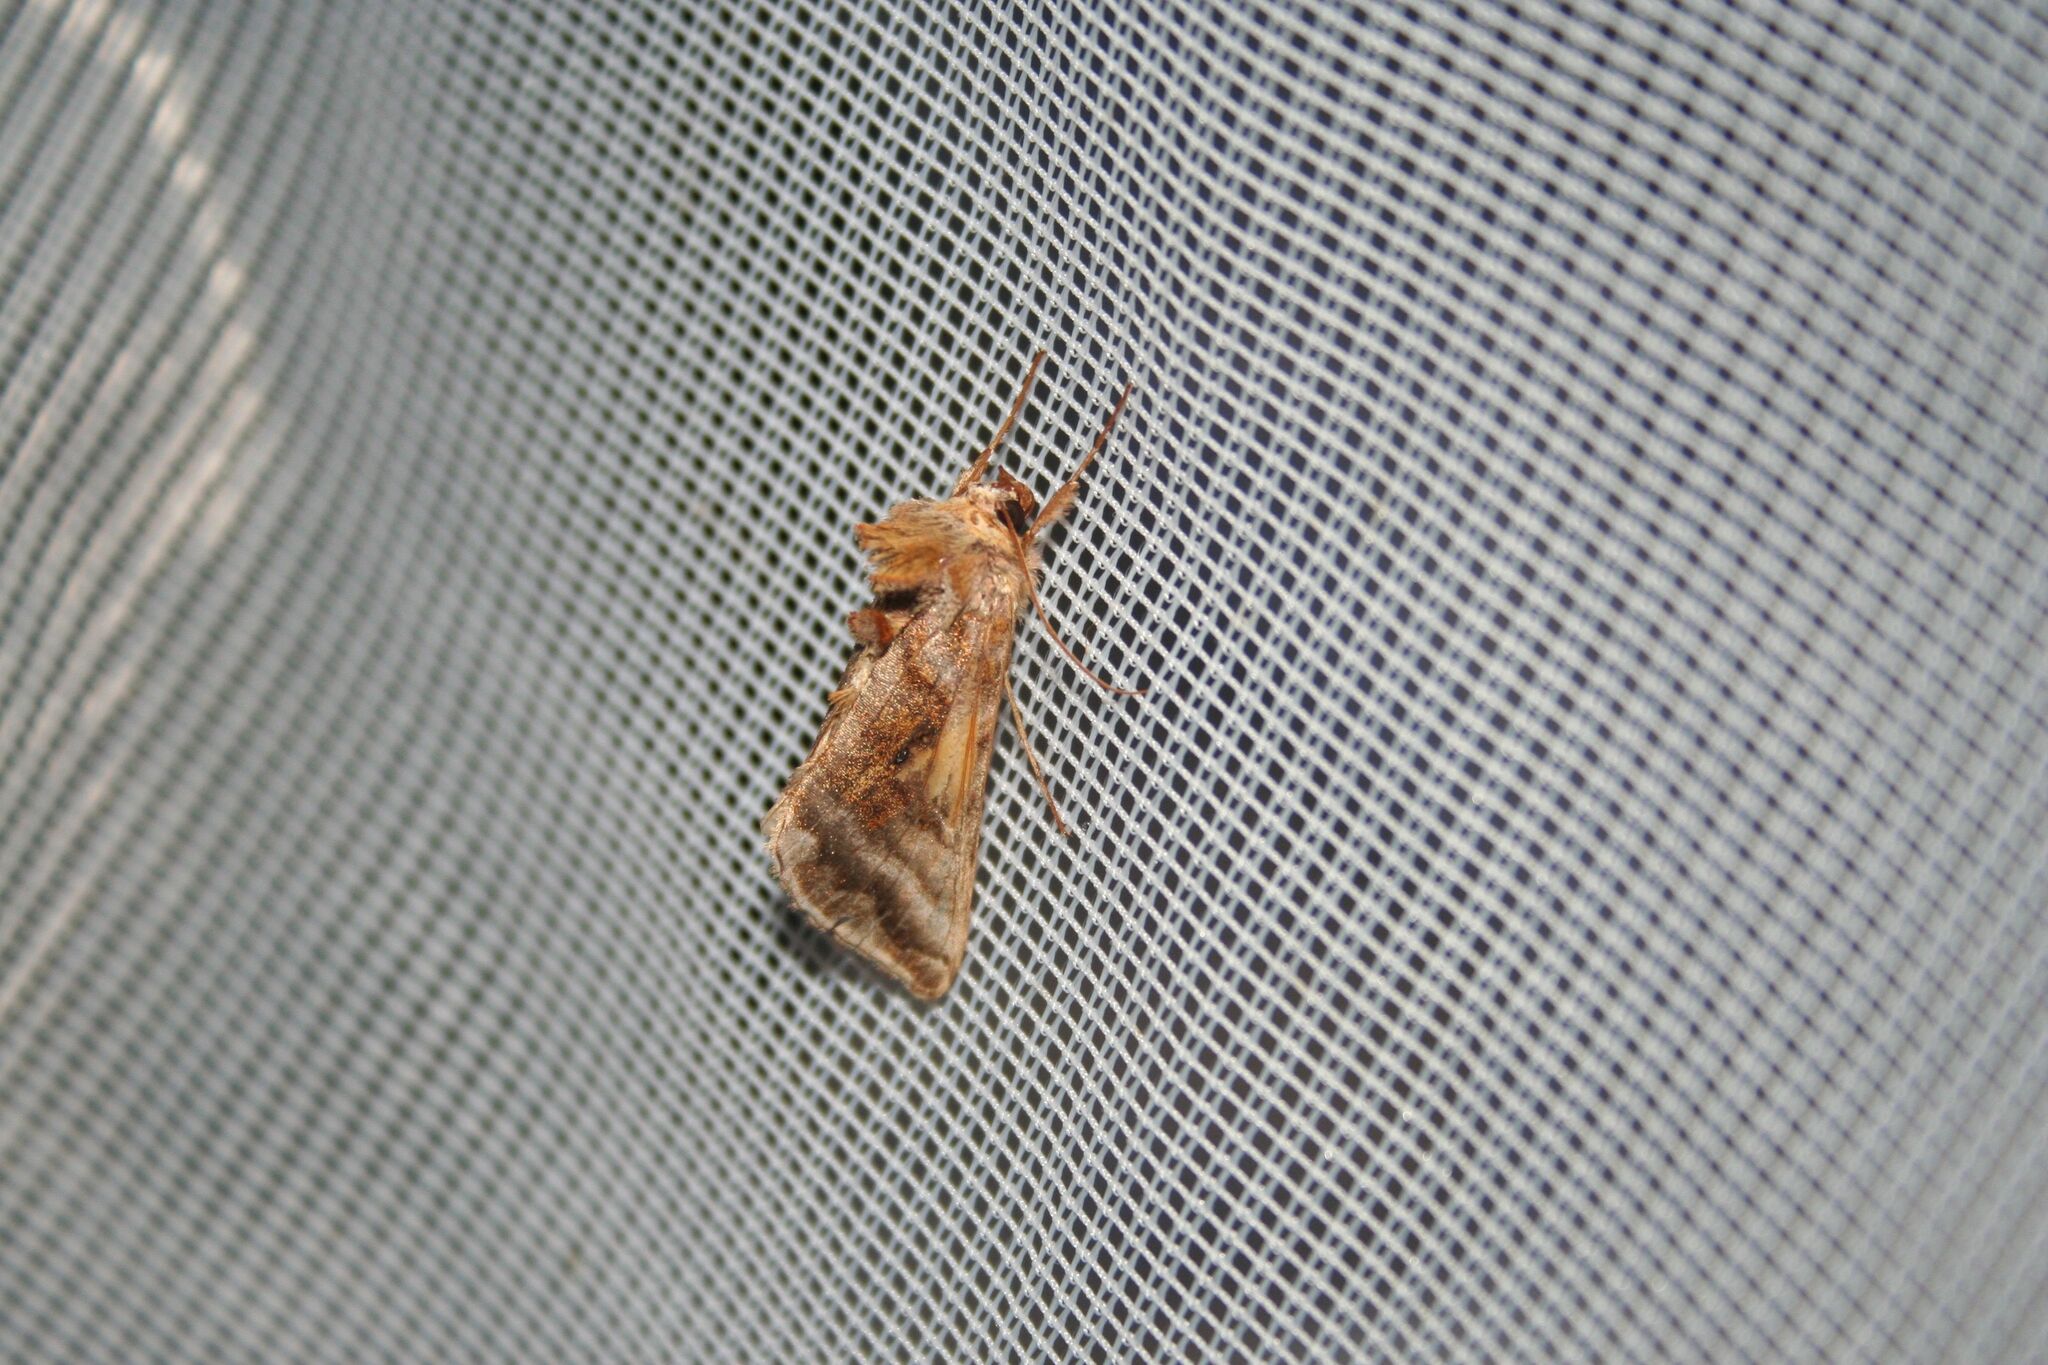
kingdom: Animalia
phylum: Arthropoda
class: Insecta
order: Lepidoptera
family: Noctuidae
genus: Autographa
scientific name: Autographa jota
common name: Plain golden y
